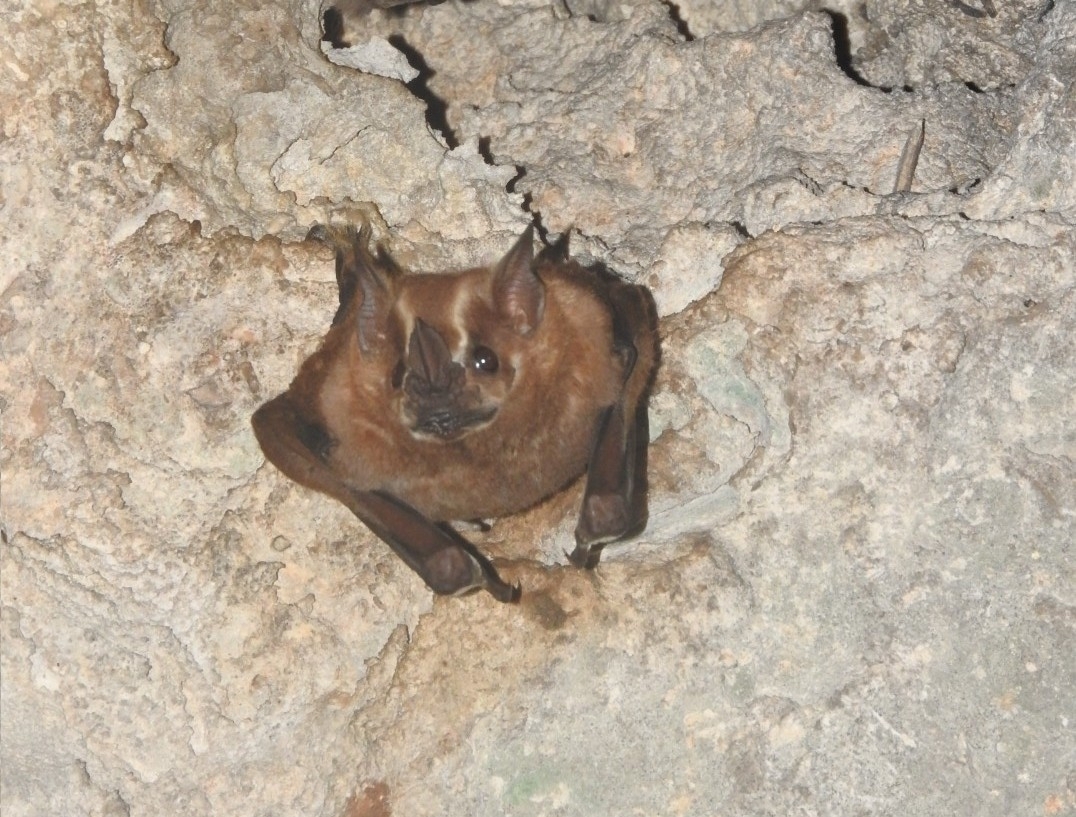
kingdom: Animalia
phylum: Chordata
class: Mammalia
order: Chiroptera
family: Phyllostomidae
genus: Artibeus
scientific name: Artibeus lituratus
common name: Great fruit-eating bat
